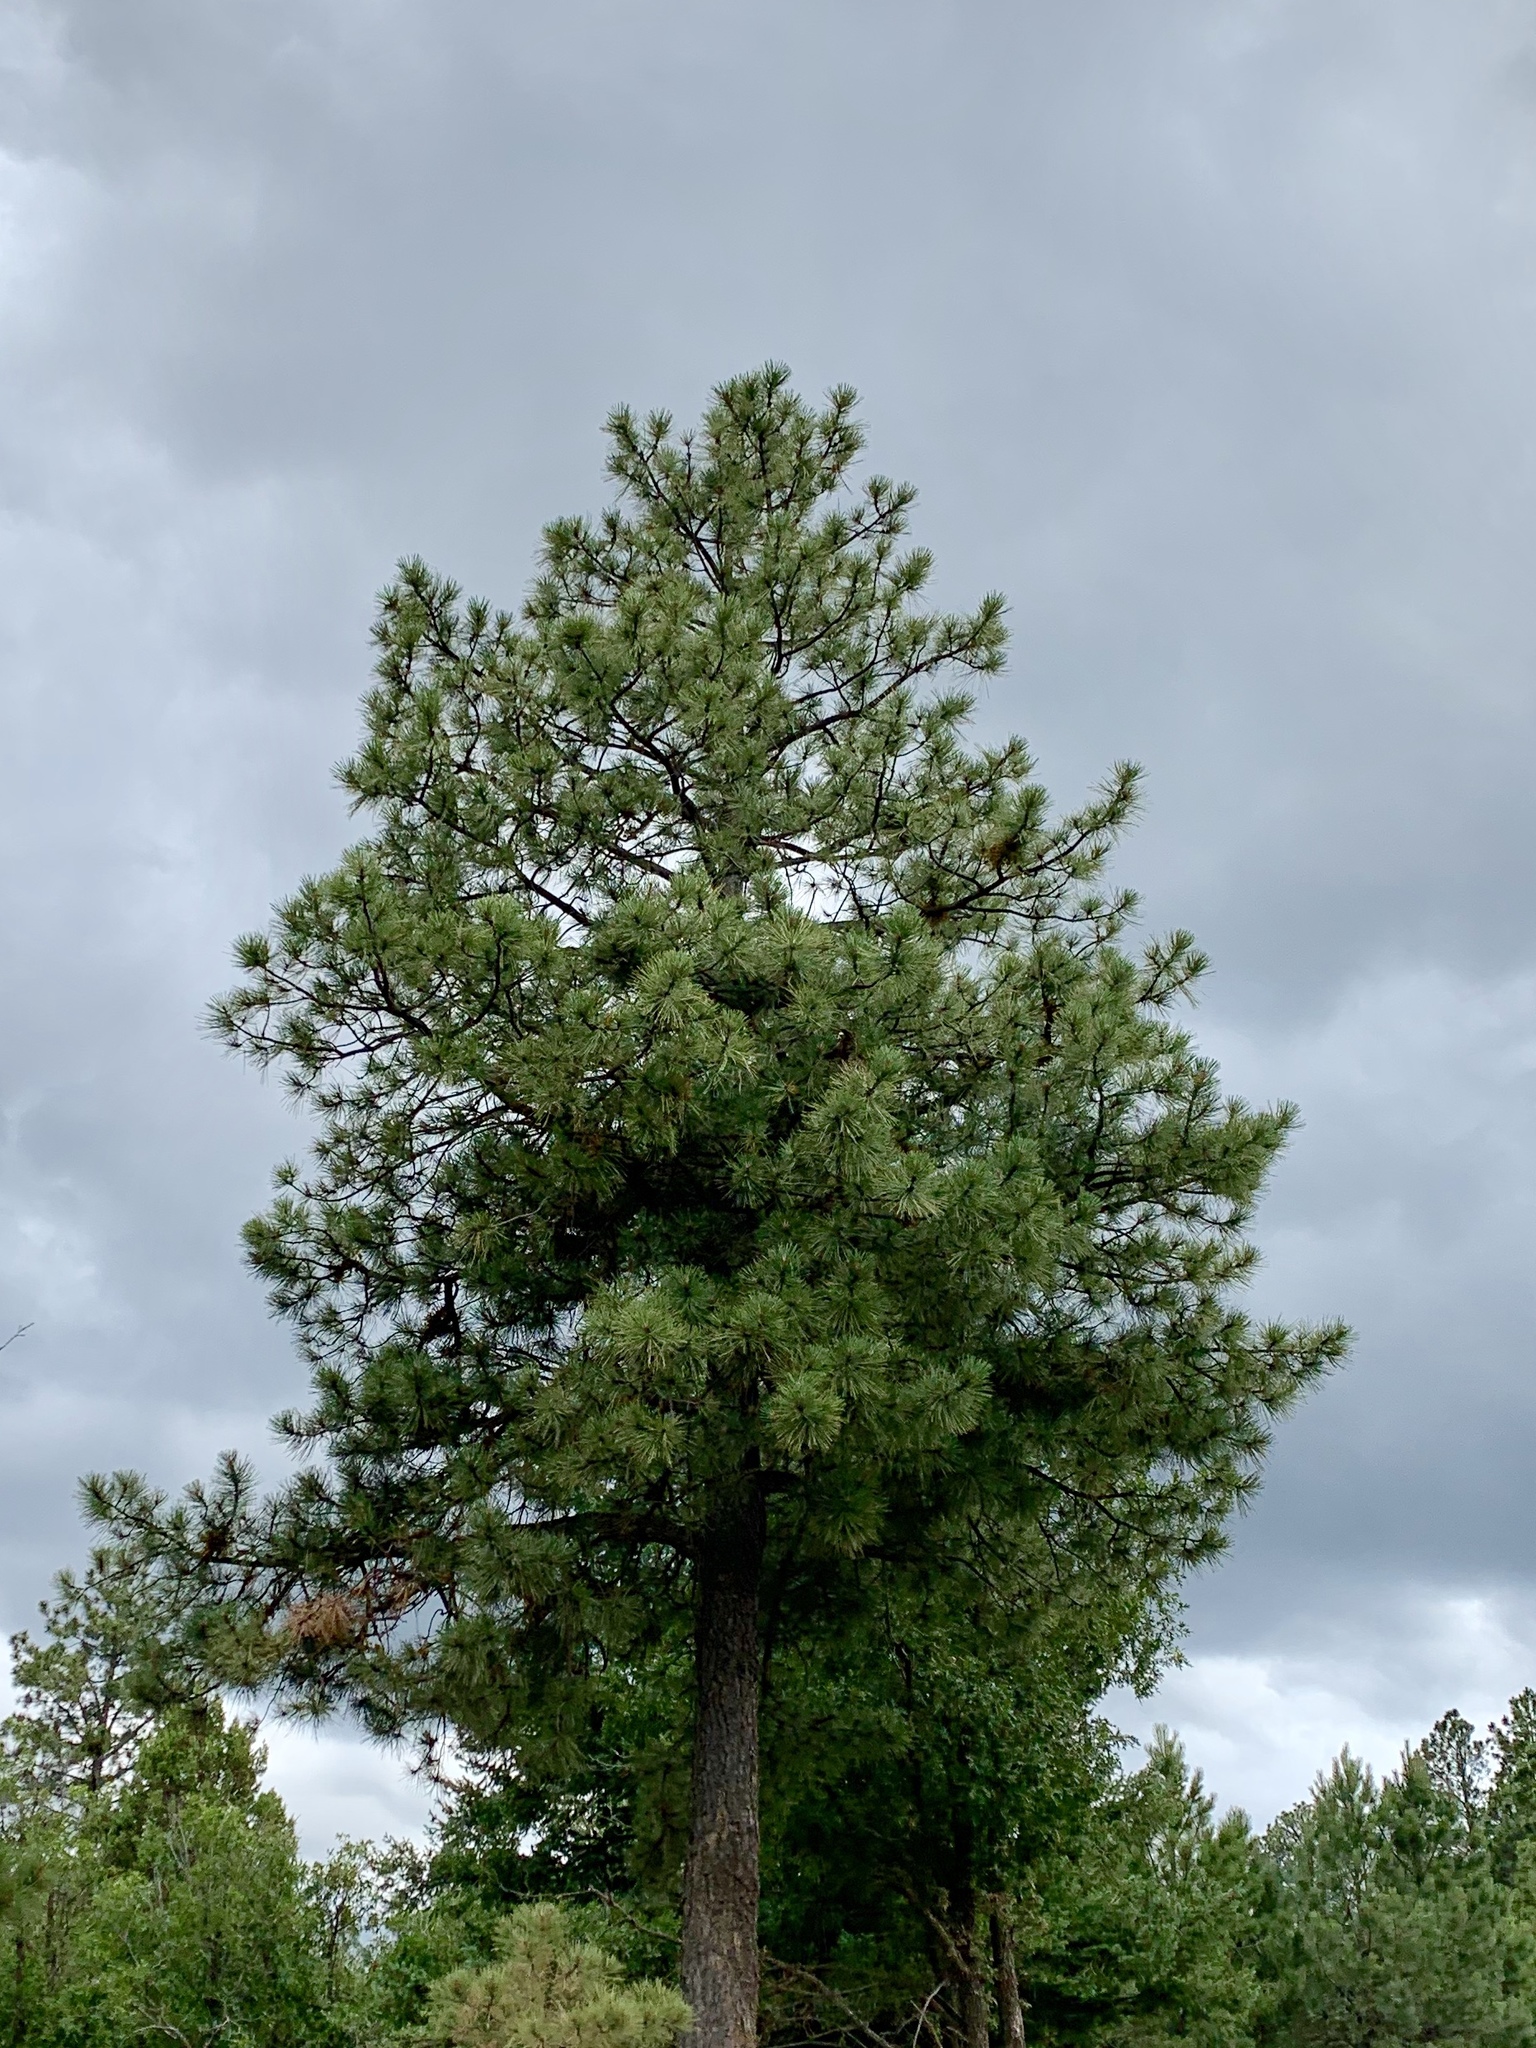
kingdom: Plantae
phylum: Tracheophyta
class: Pinopsida
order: Pinales
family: Pinaceae
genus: Pinus
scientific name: Pinus ponderosa
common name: Western yellow-pine
